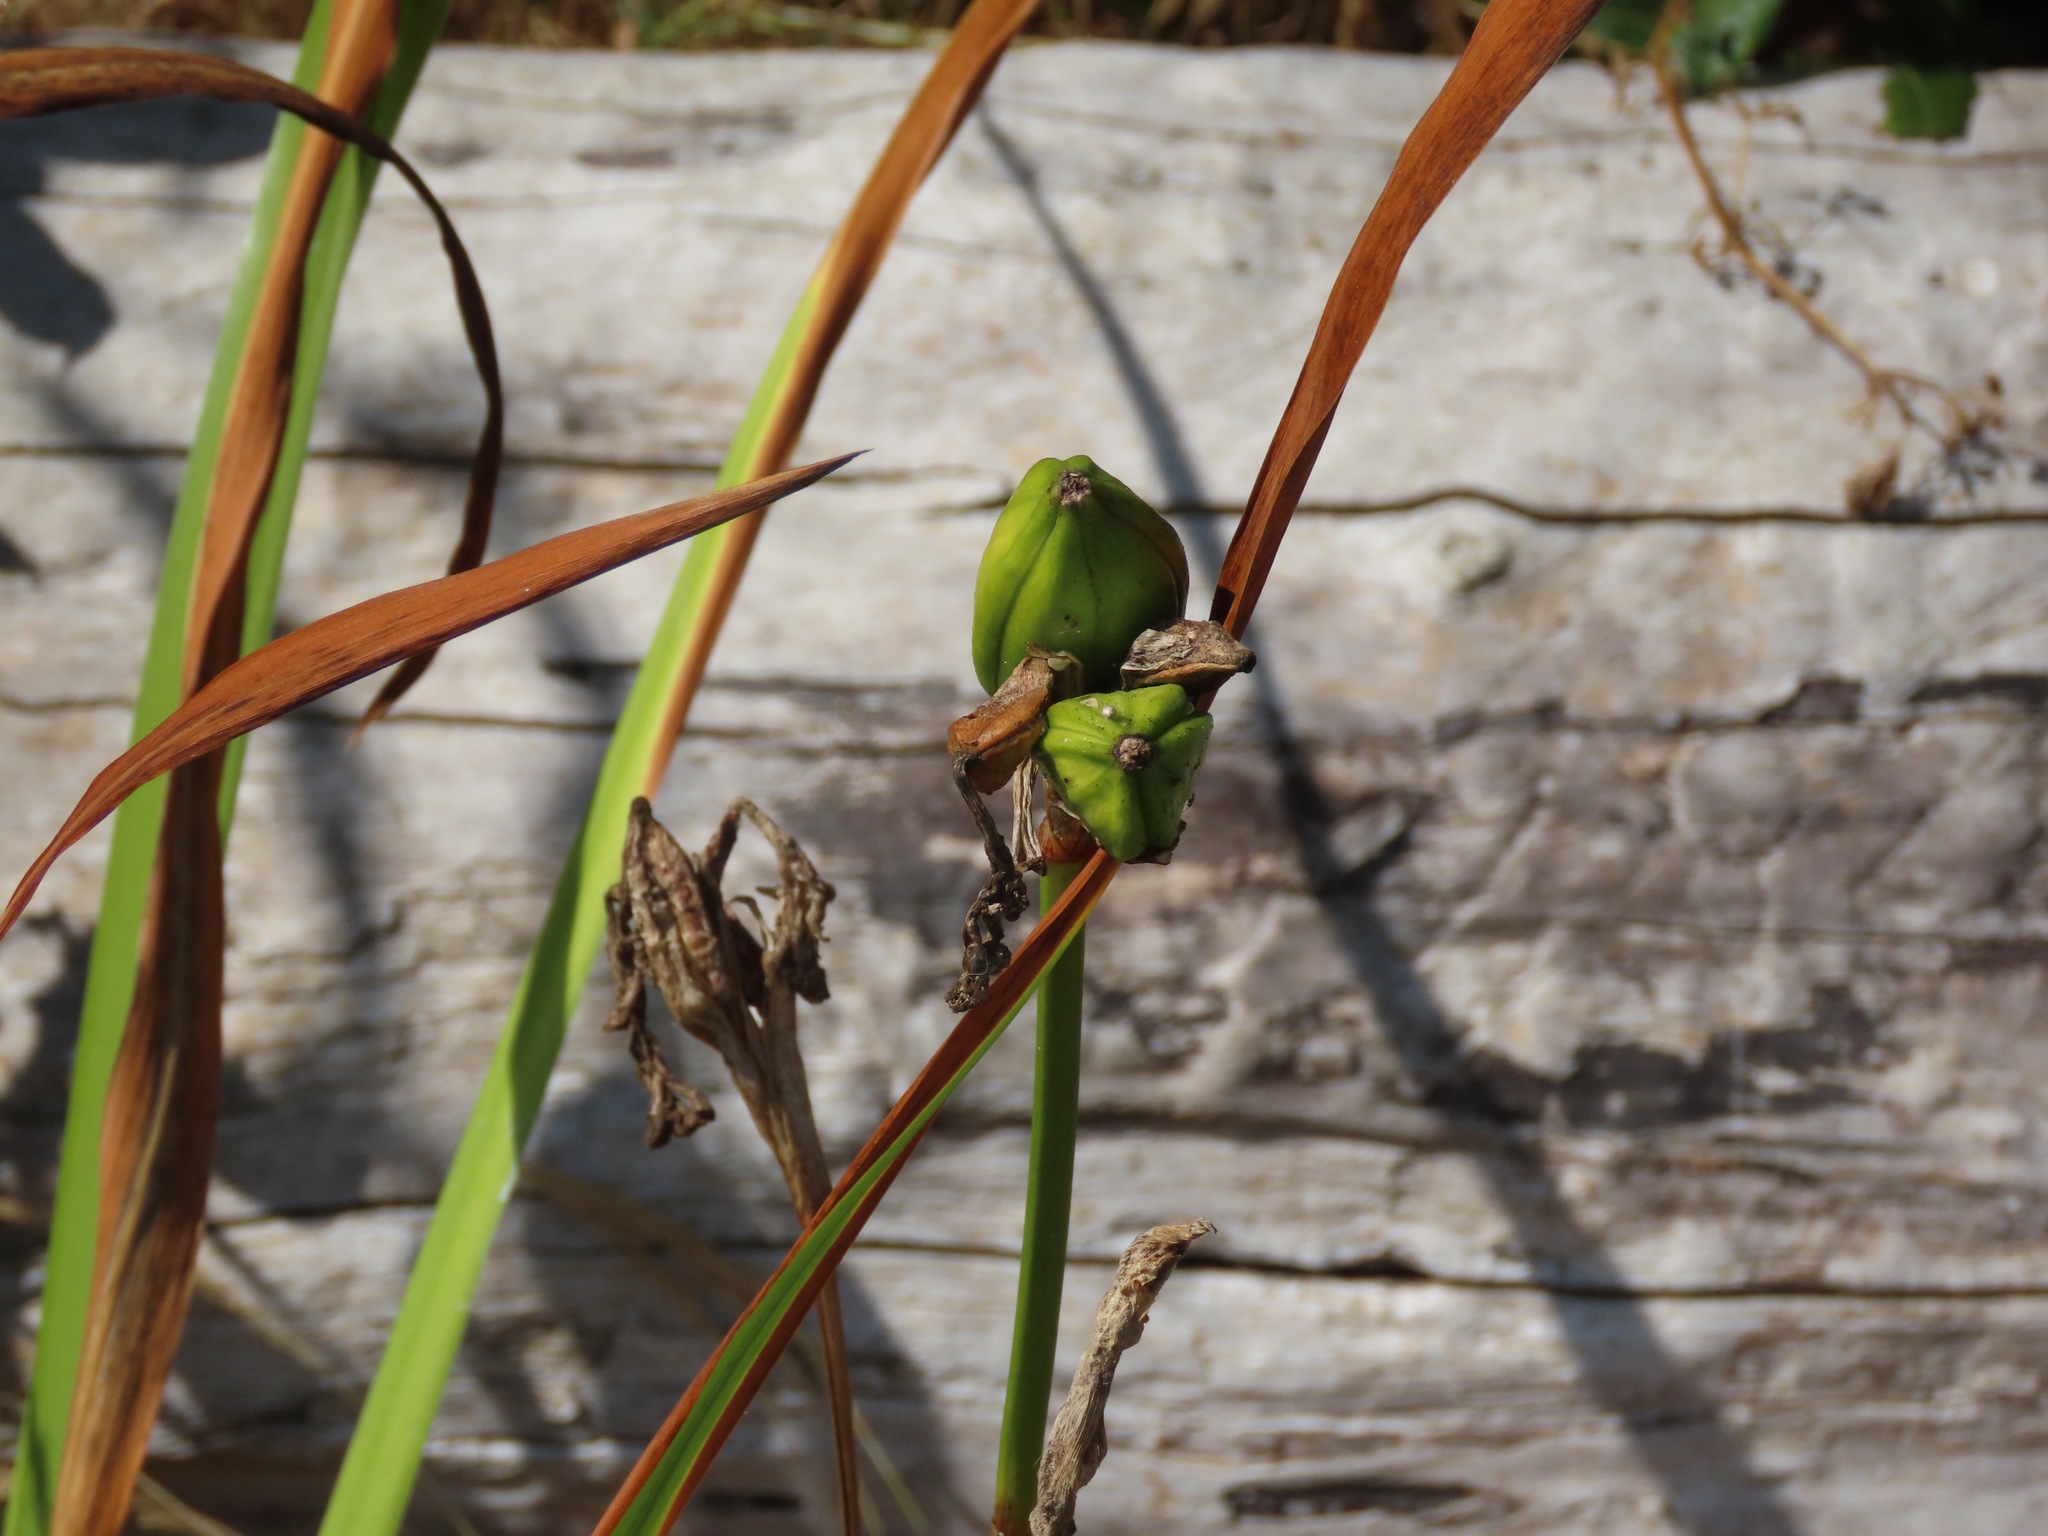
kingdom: Plantae
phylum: Tracheophyta
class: Liliopsida
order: Asparagales
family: Iridaceae
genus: Iris
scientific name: Iris pseudacorus
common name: Yellow flag
